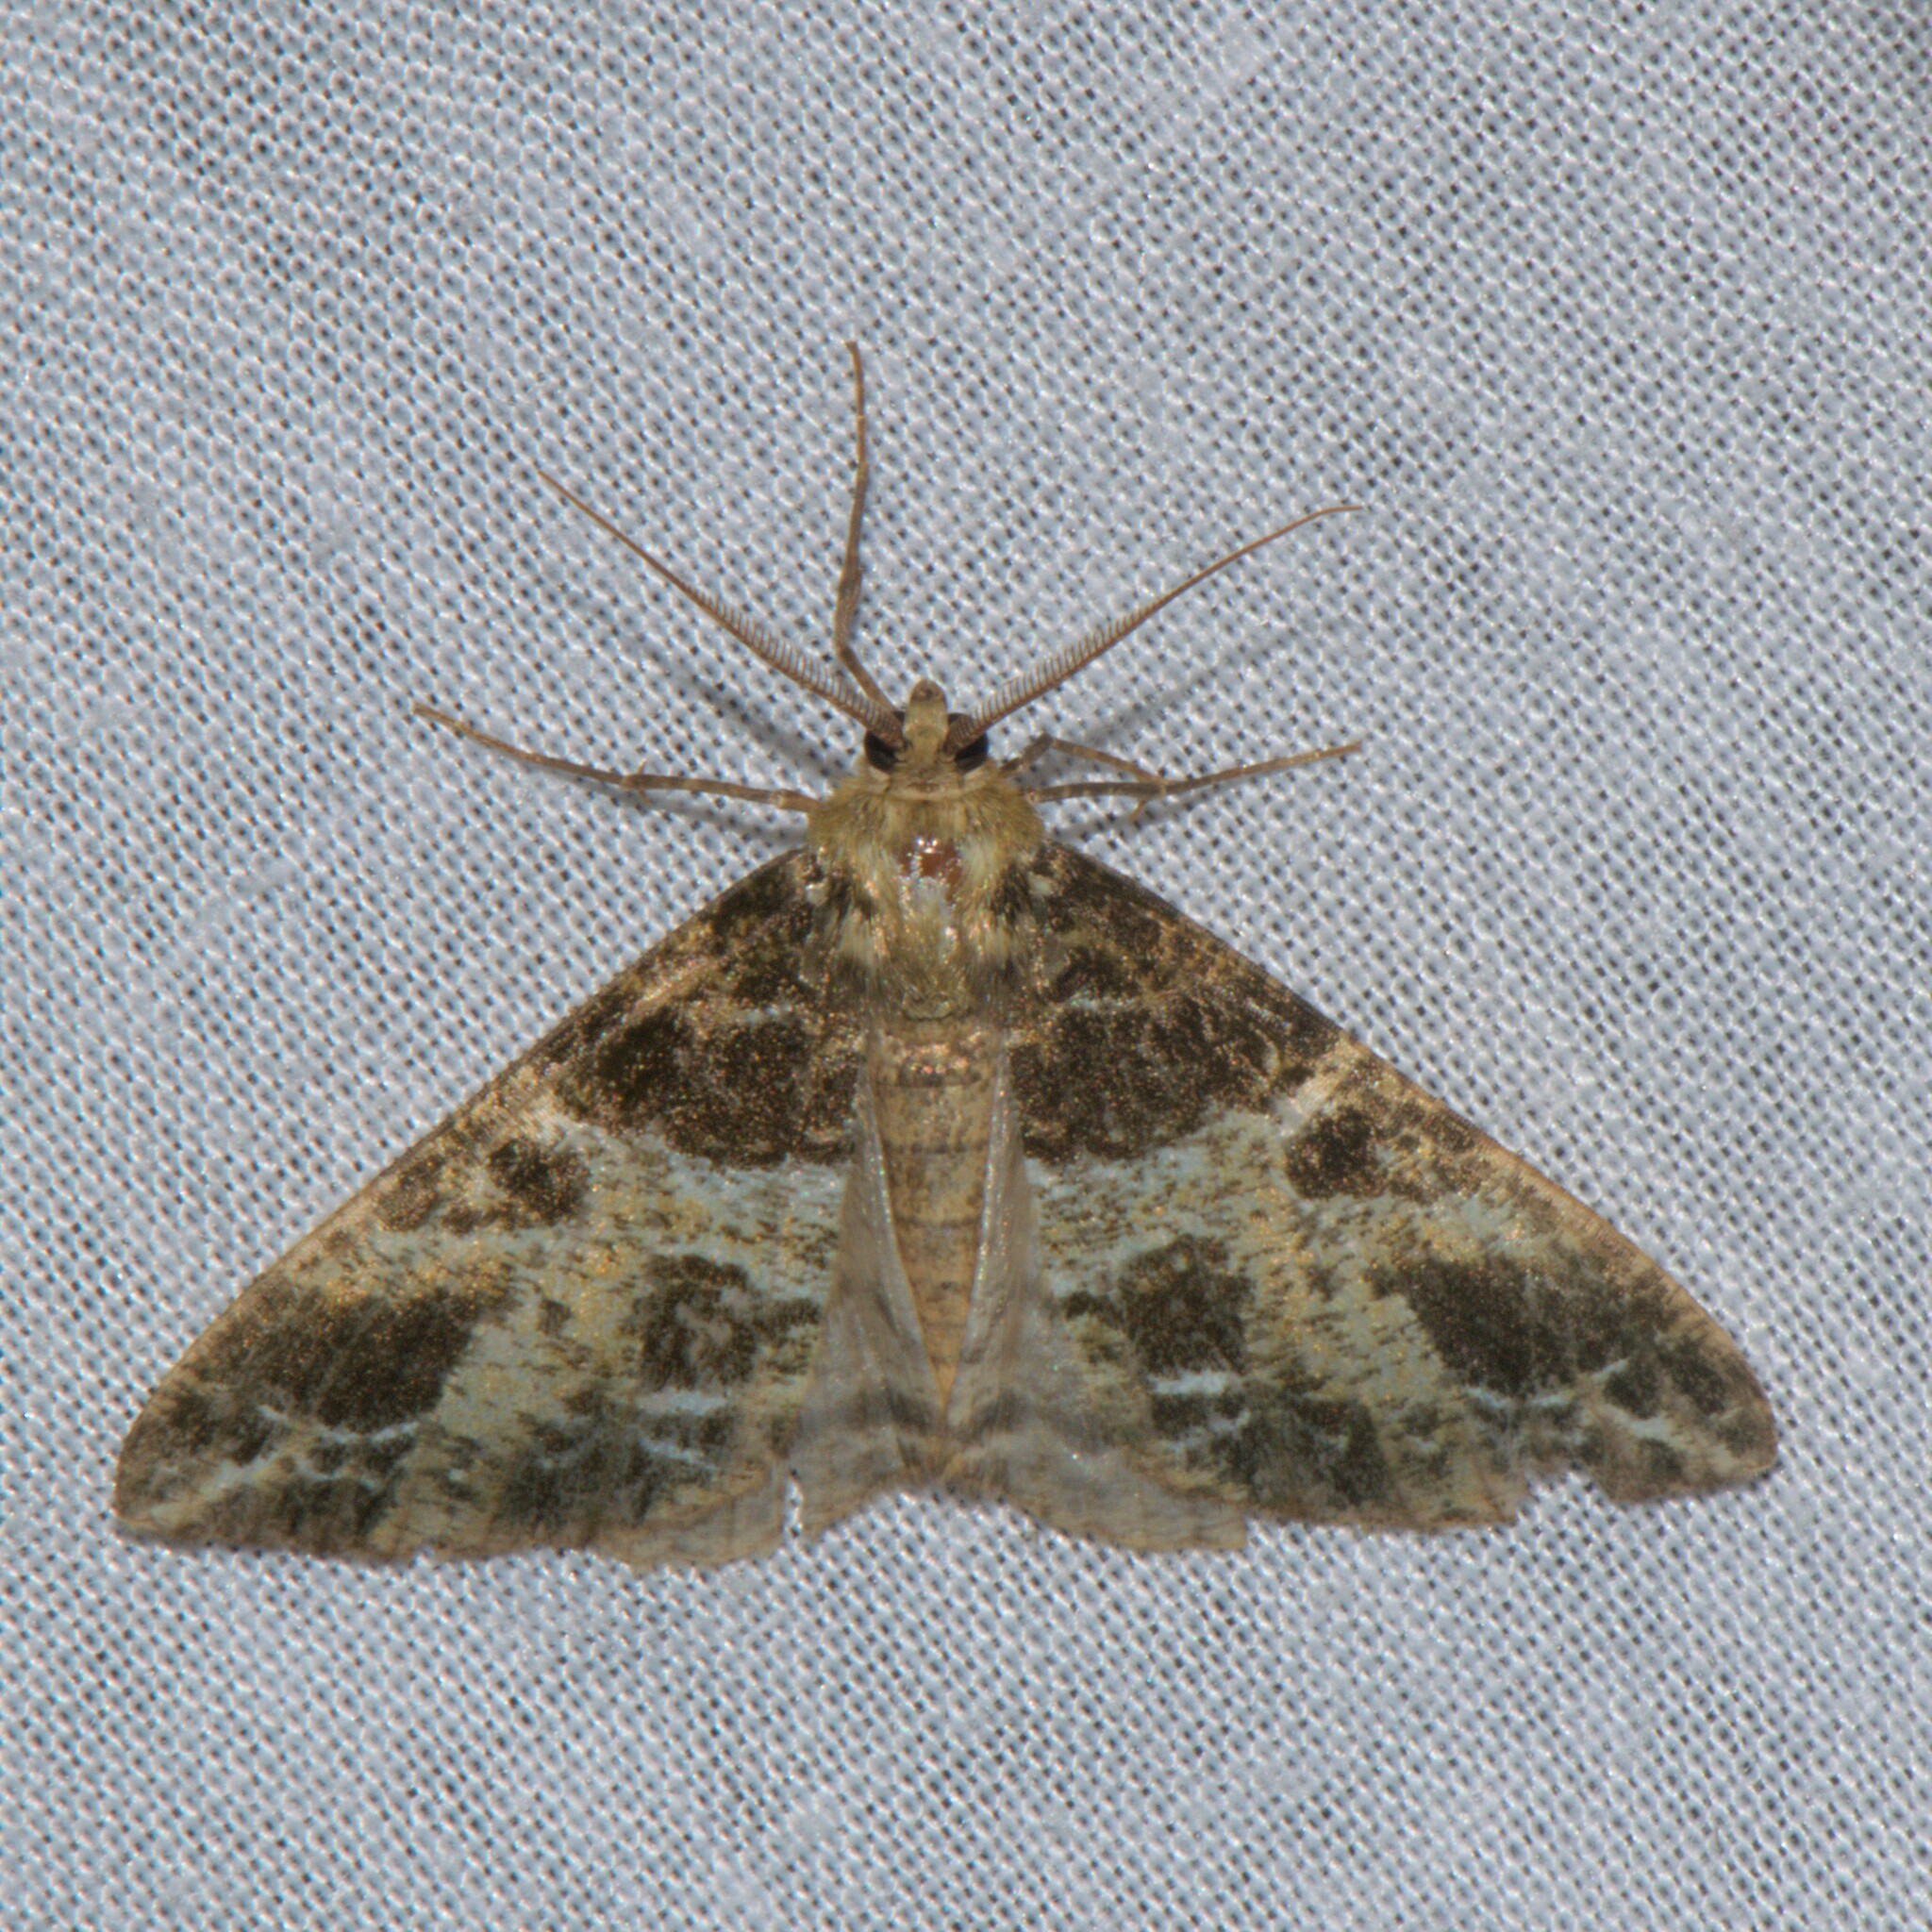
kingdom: Animalia
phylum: Arthropoda
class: Insecta
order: Lepidoptera
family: Geometridae
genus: Arichanna
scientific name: Arichanna
